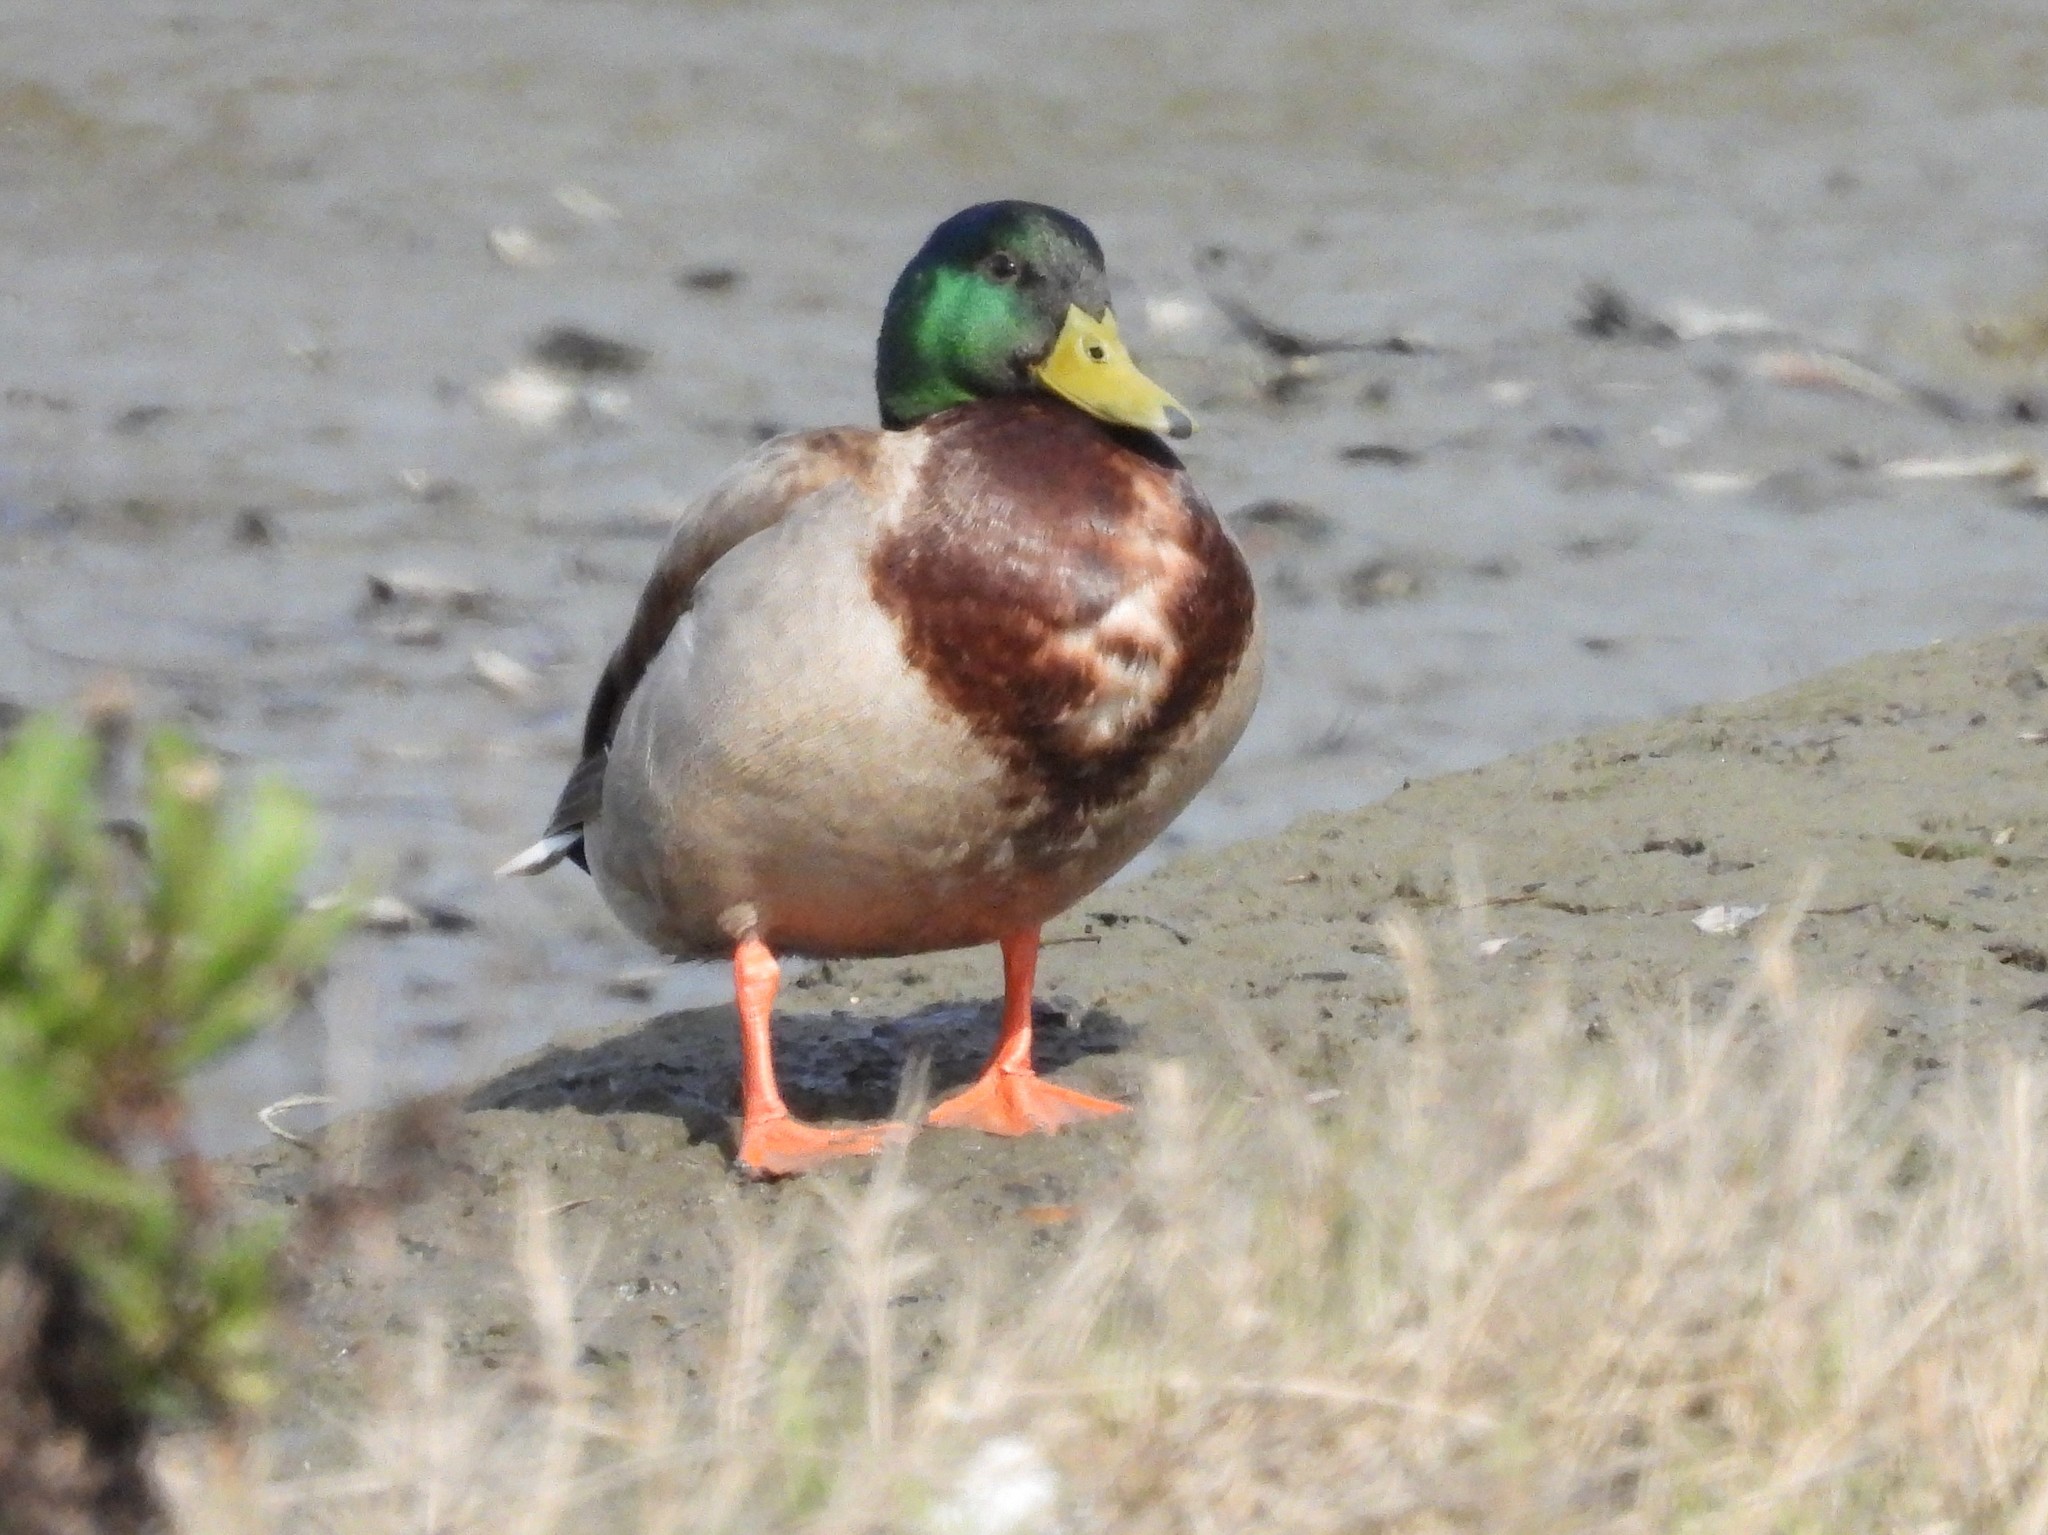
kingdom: Animalia
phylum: Chordata
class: Aves
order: Anseriformes
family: Anatidae
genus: Anas
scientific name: Anas platyrhynchos
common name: Mallard
